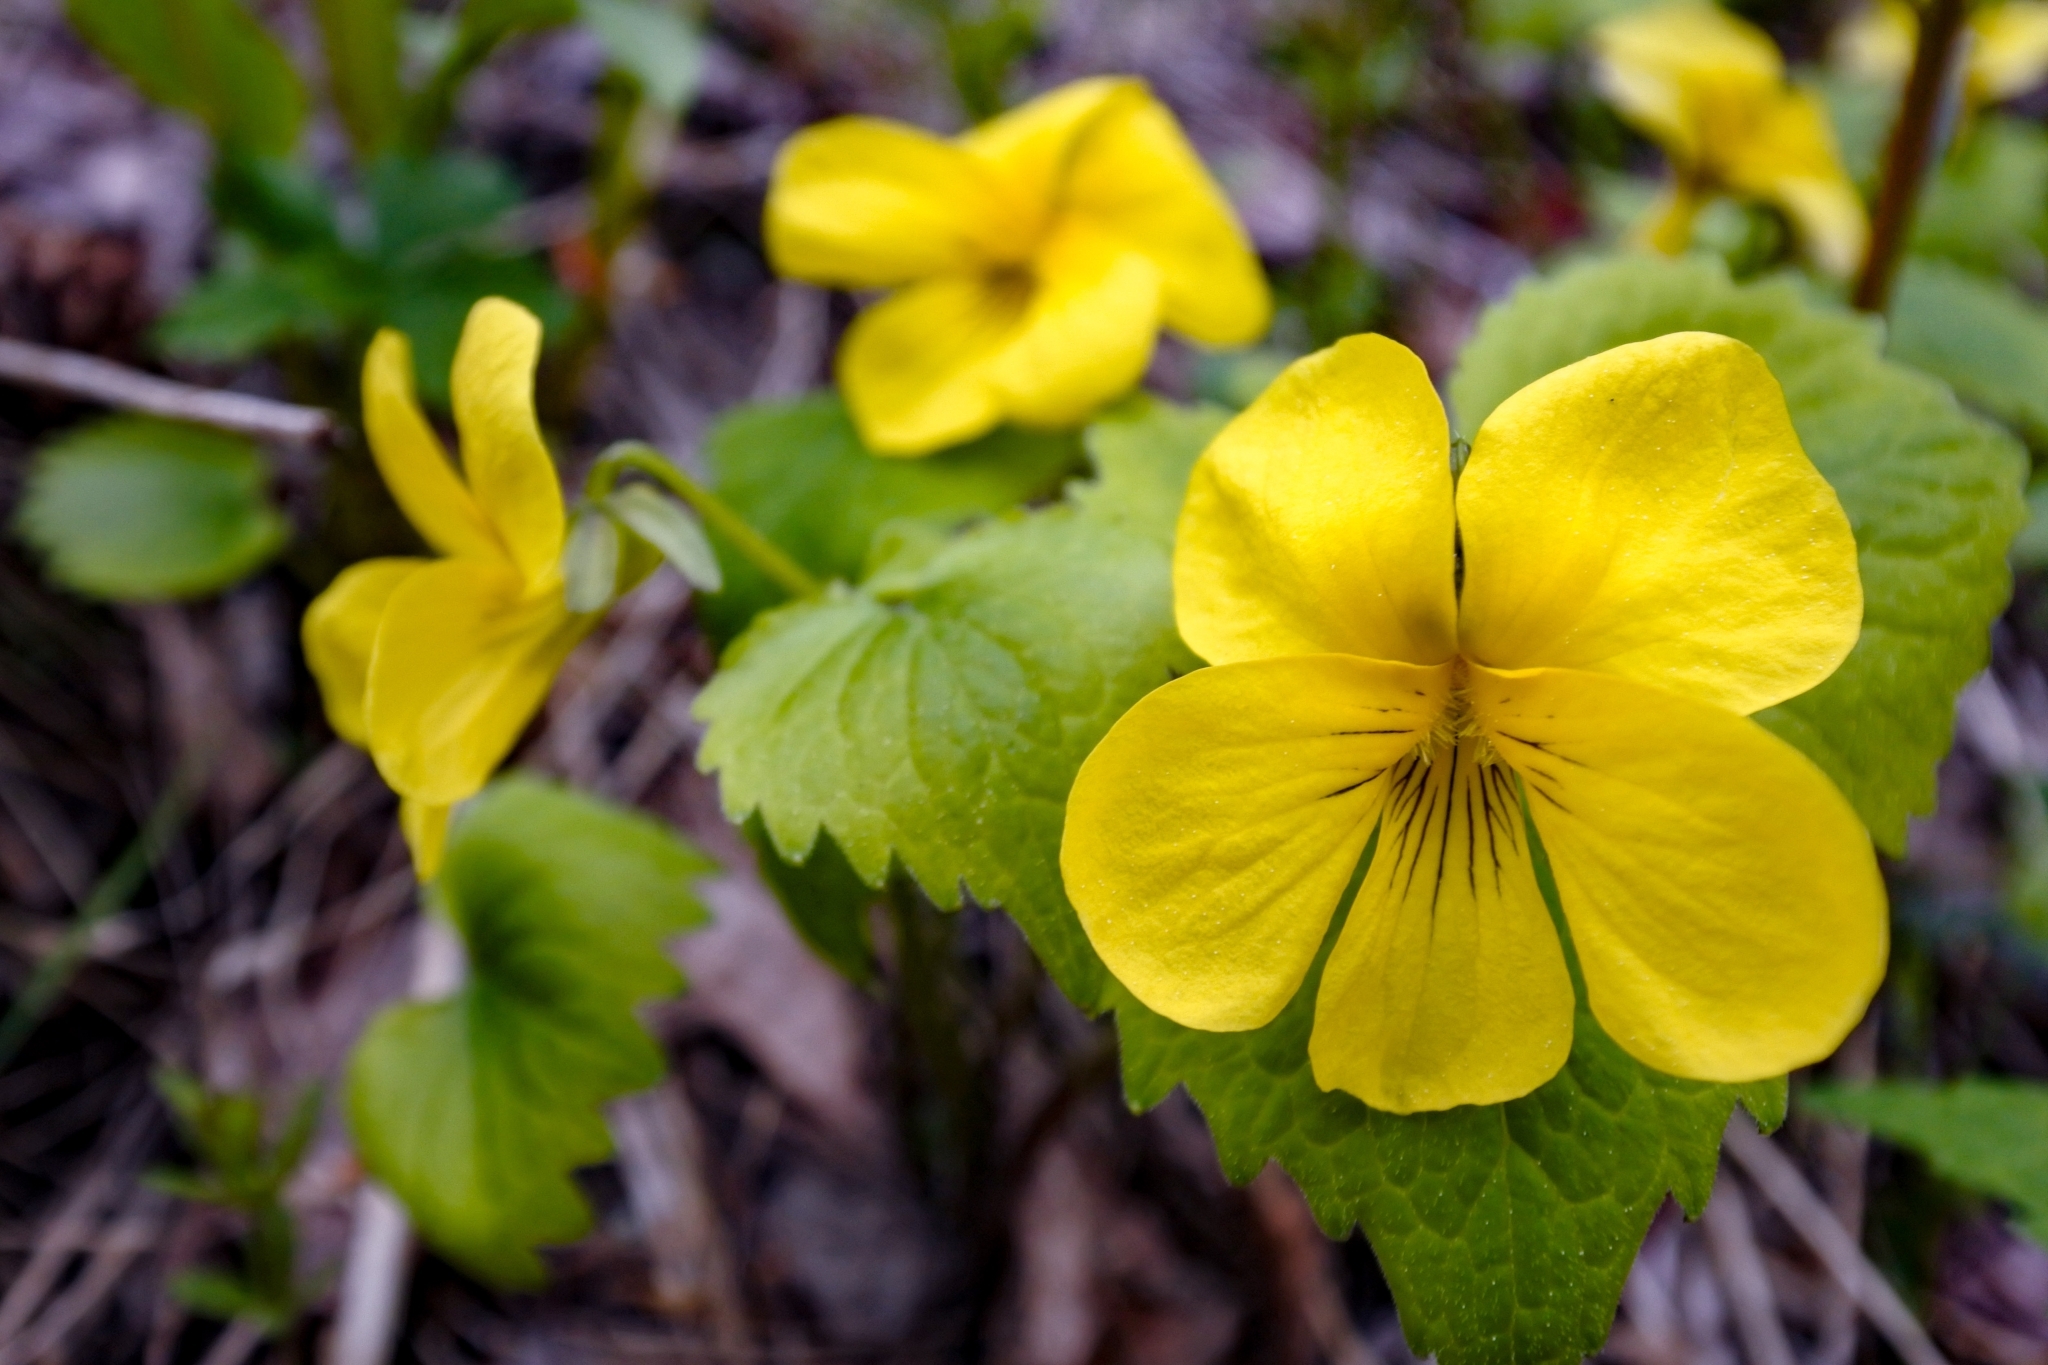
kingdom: Plantae
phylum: Tracheophyta
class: Magnoliopsida
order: Malpighiales
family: Violaceae
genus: Viola
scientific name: Viola uniflora
